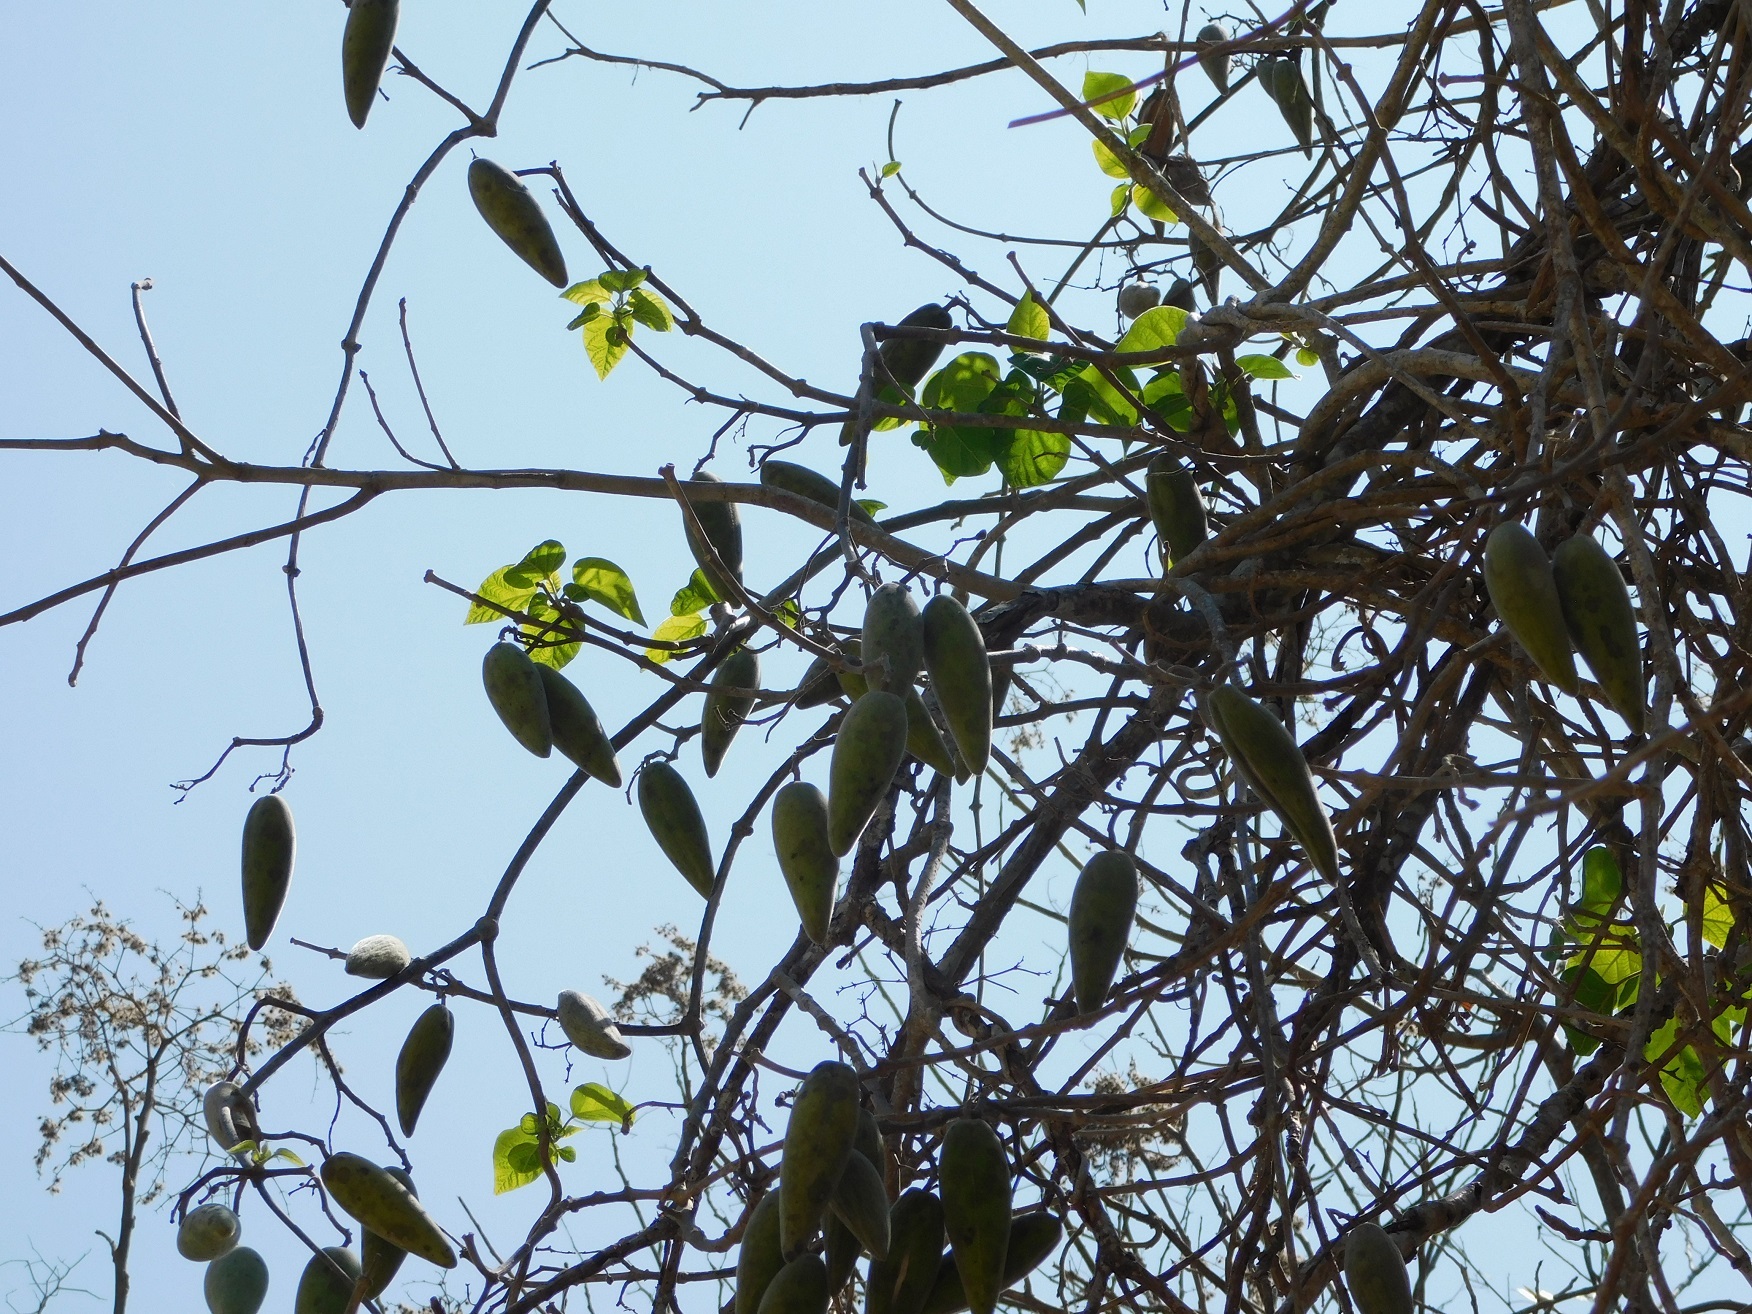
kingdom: Plantae
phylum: Tracheophyta
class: Magnoliopsida
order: Gentianales
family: Apocynaceae
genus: Ruehssia
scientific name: Ruehssia gualanensis
